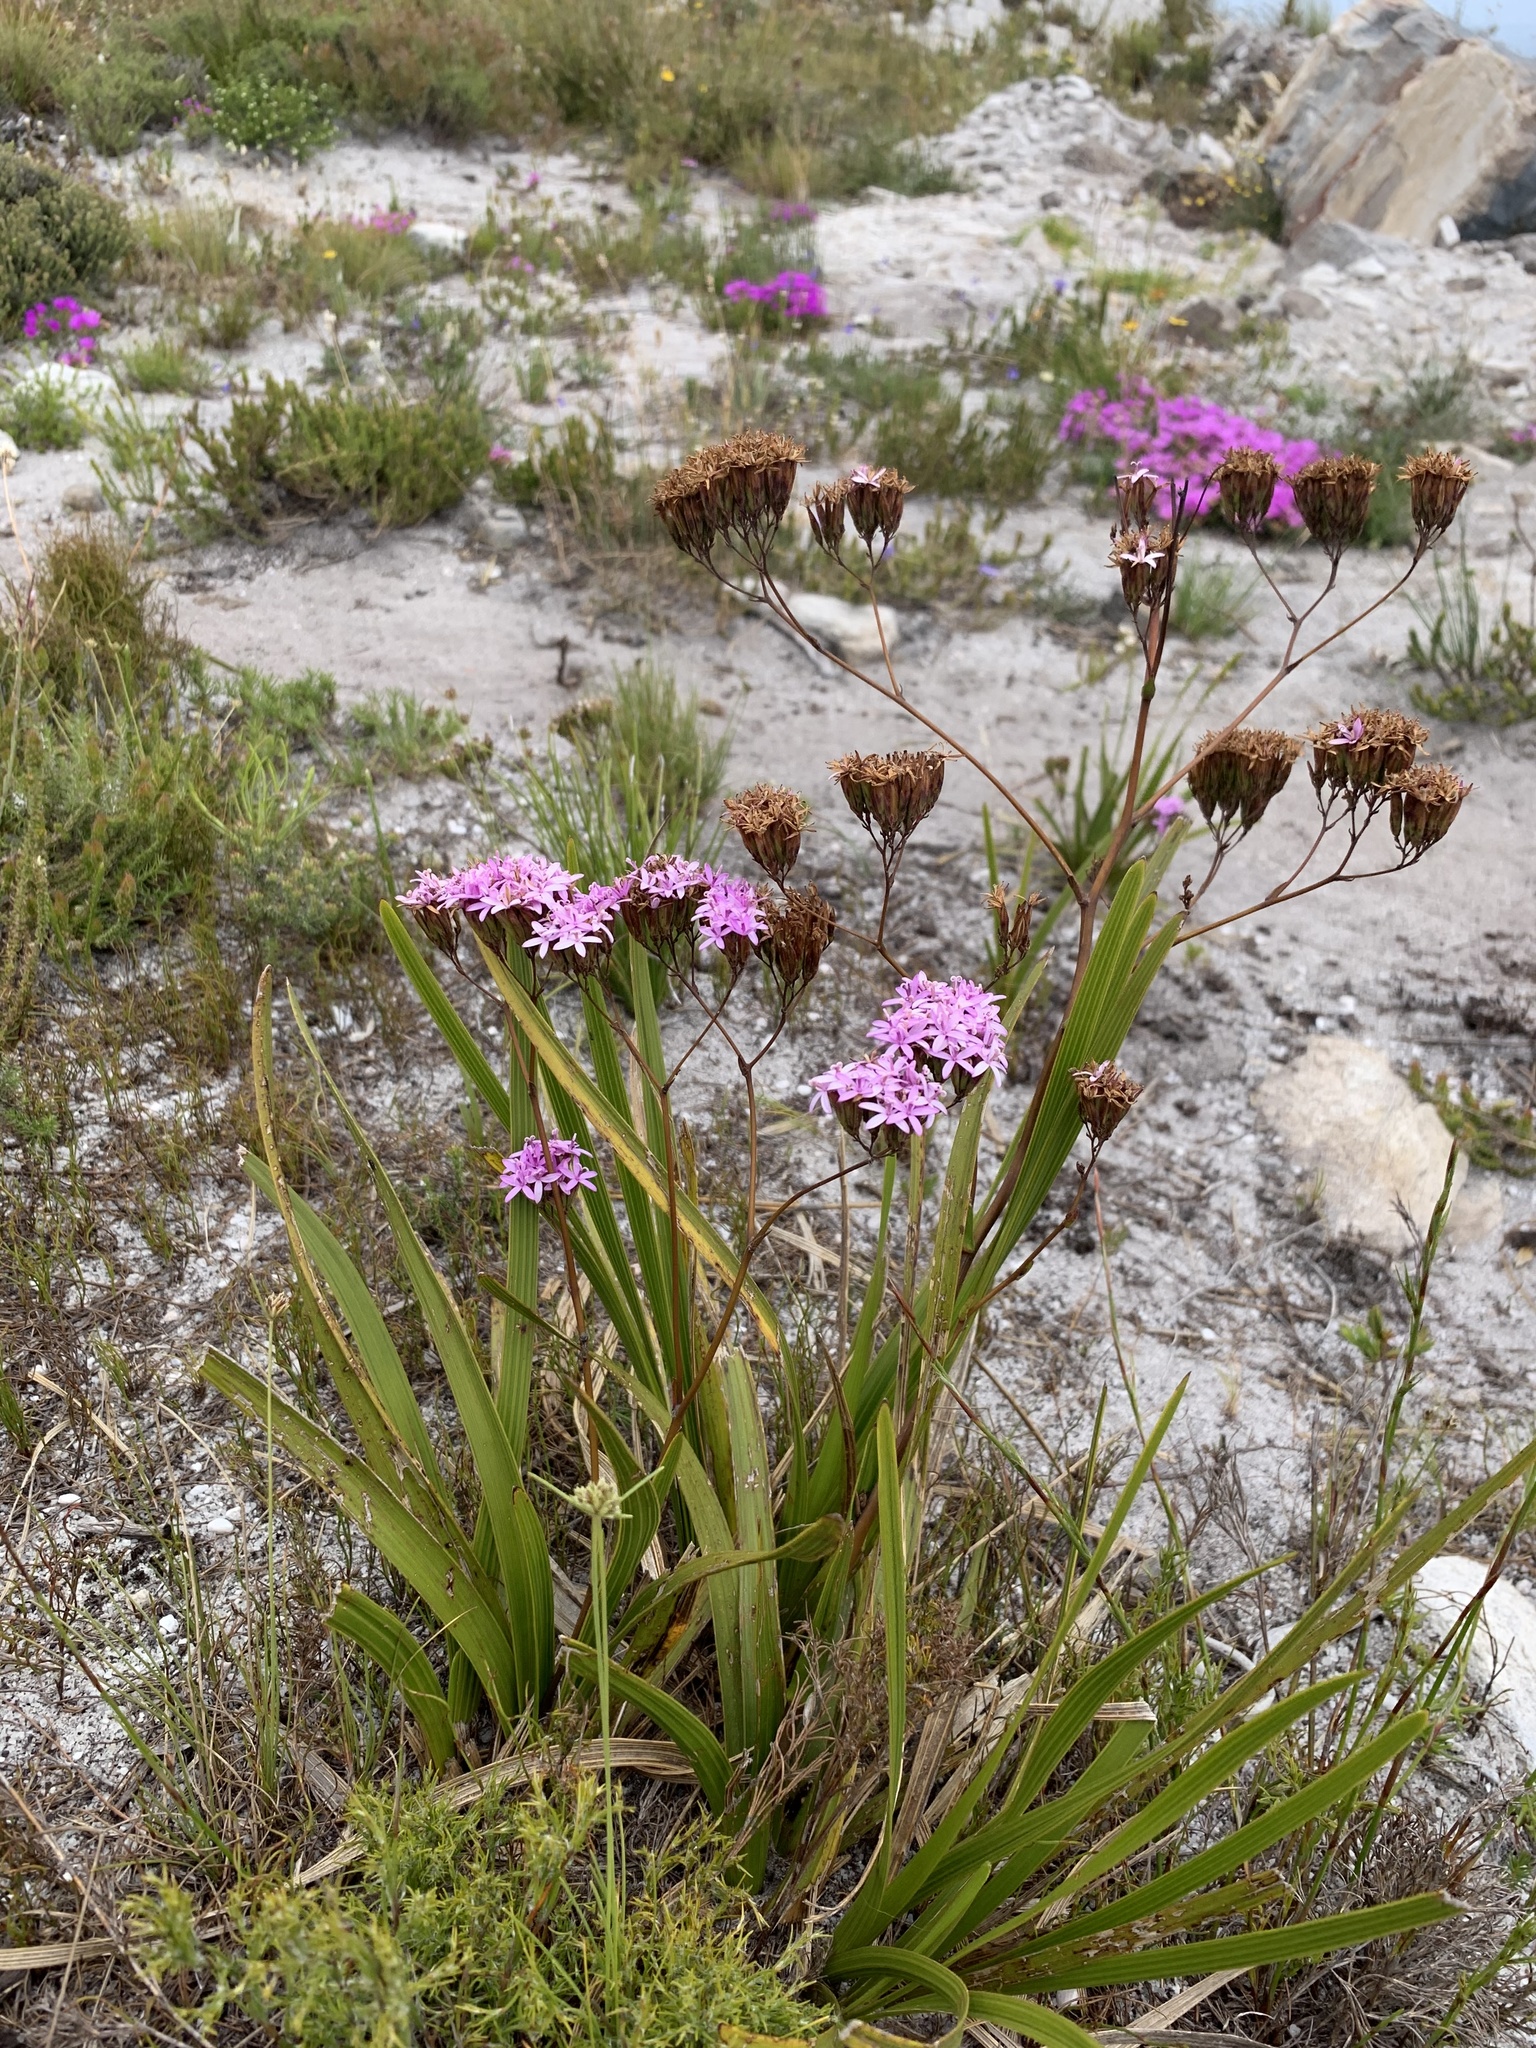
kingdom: Plantae
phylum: Tracheophyta
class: Magnoliopsida
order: Asterales
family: Asteraceae
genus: Corymbium
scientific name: Corymbium glabrum
